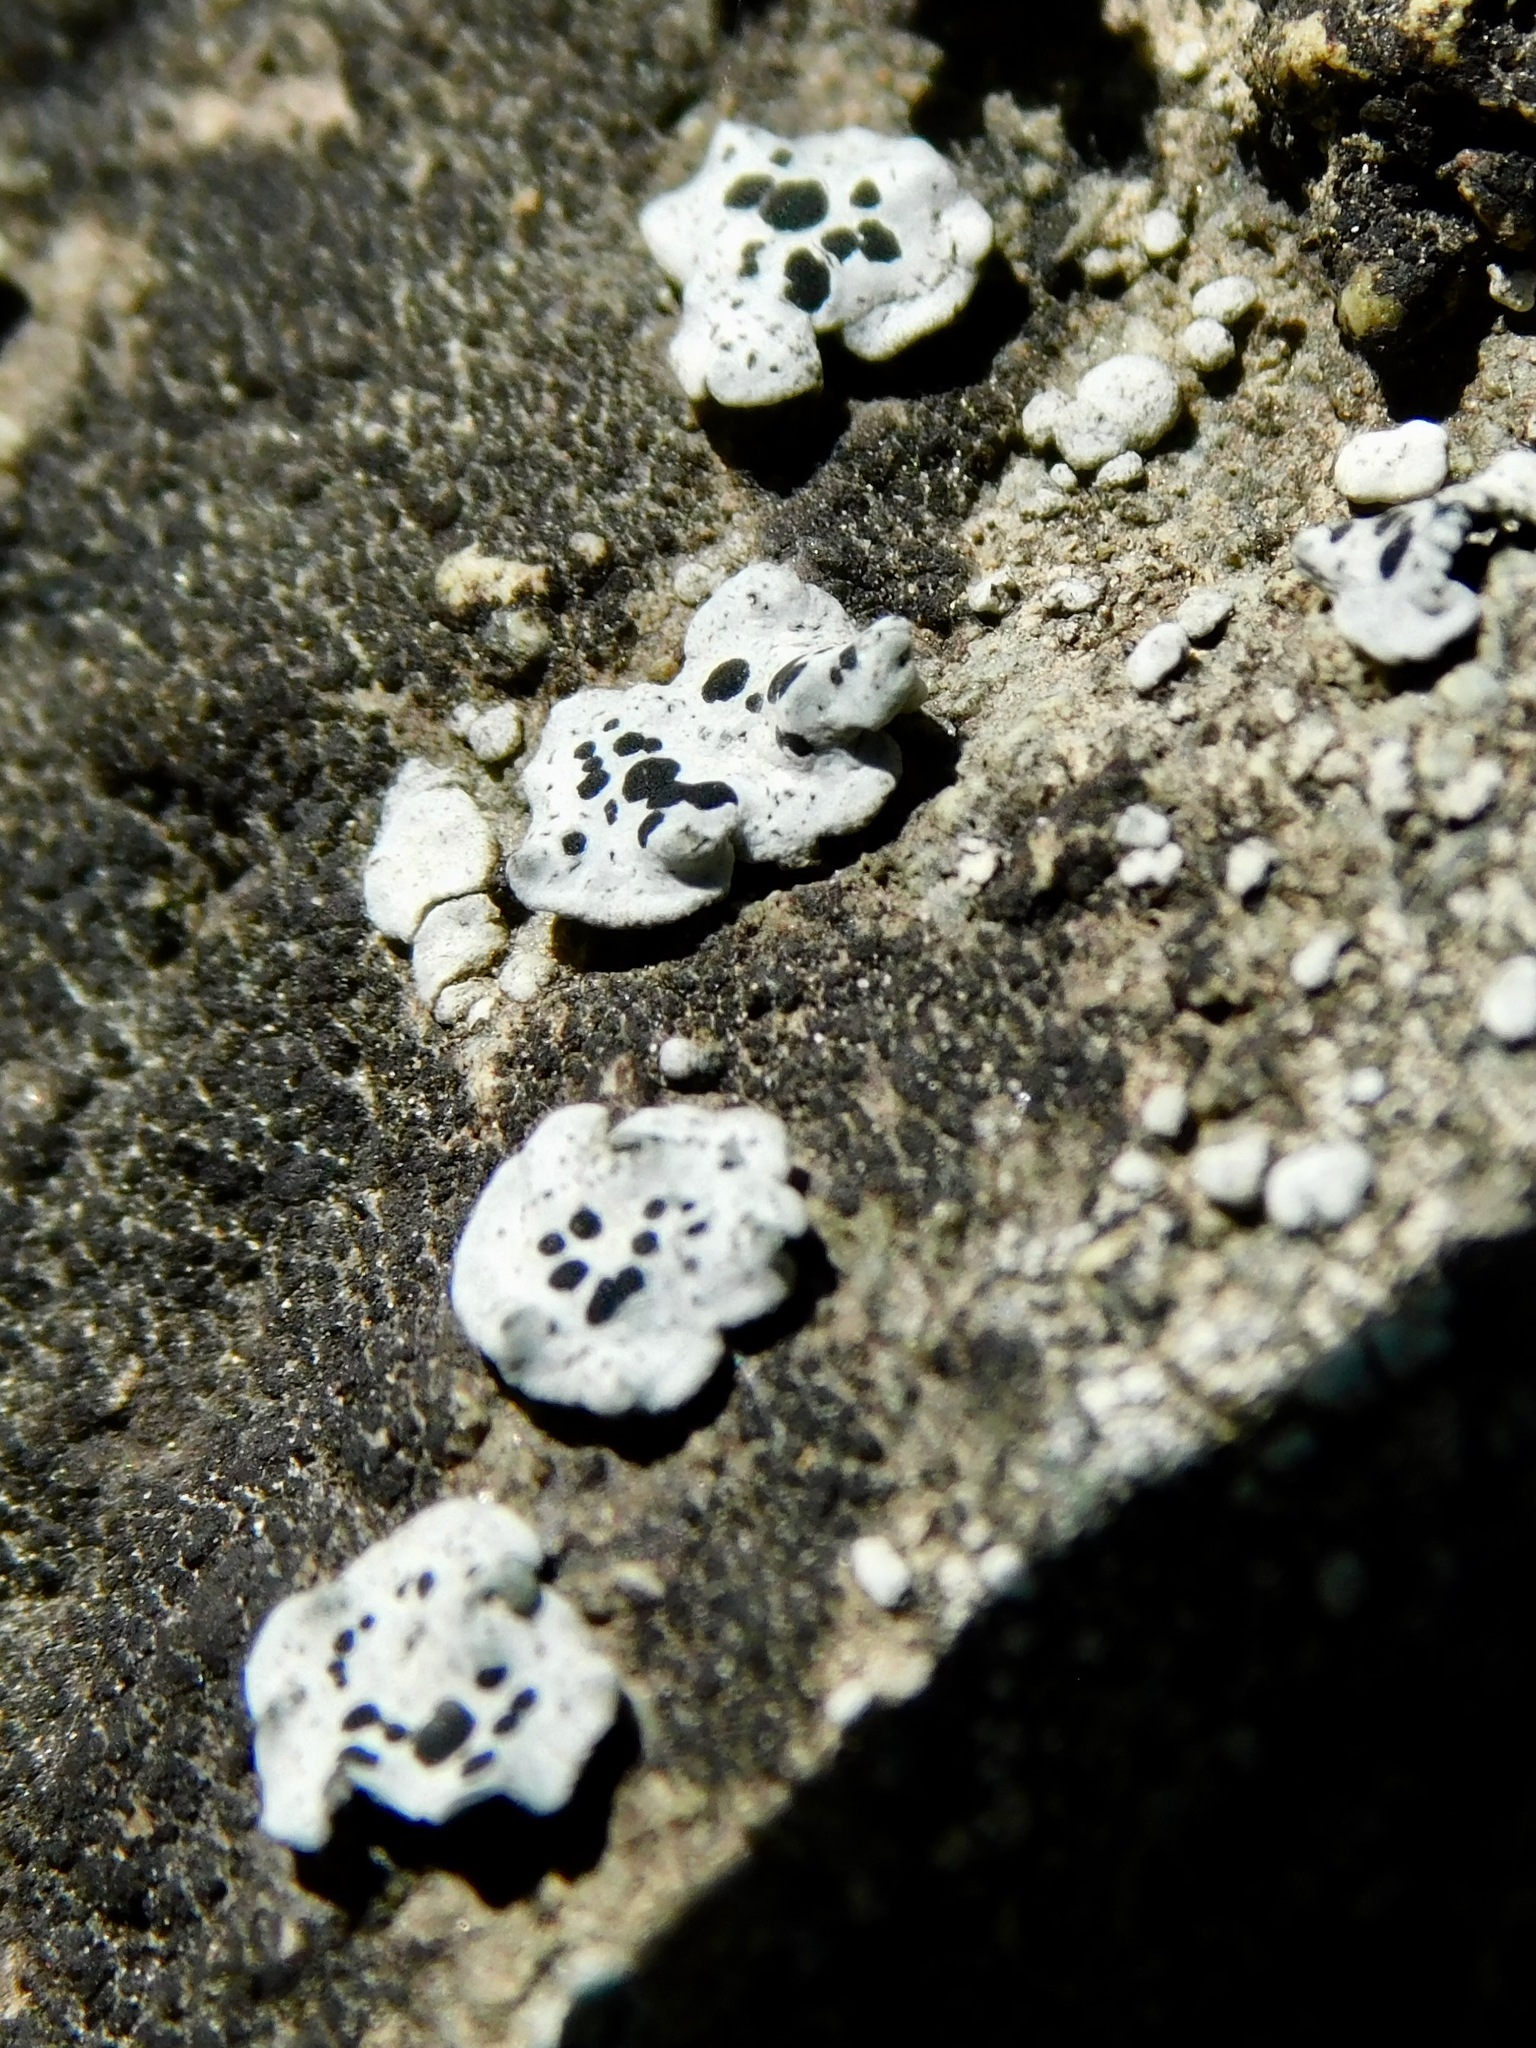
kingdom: Fungi
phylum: Ascomycota
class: Lecanoromycetes
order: Caliciales
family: Caliciaceae
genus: Dermiscellum
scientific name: Dermiscellum oulocheilum
